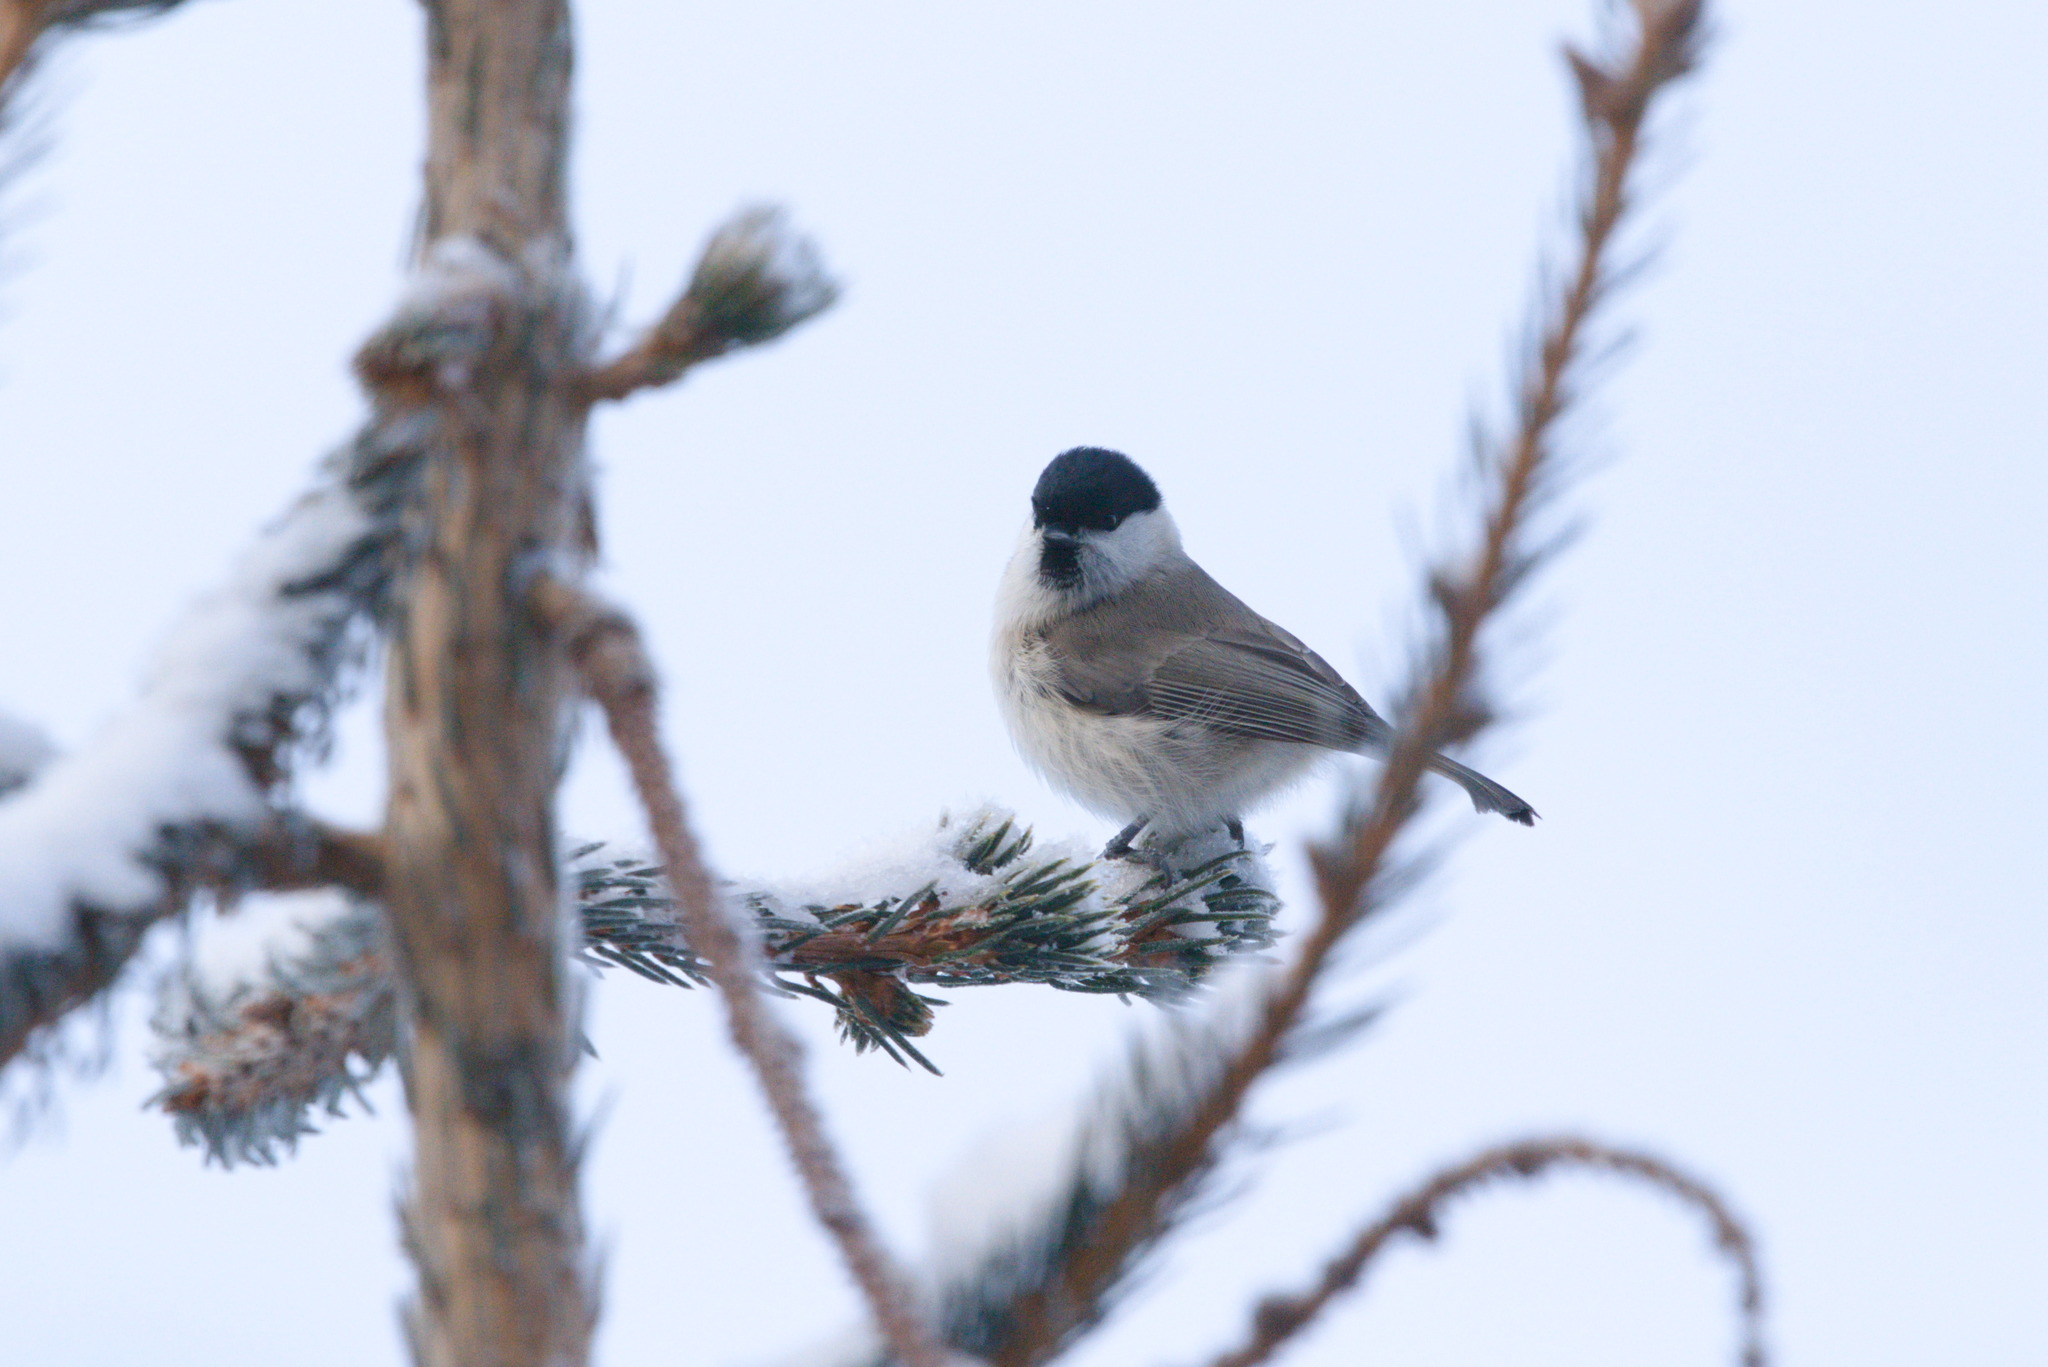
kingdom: Animalia
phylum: Chordata
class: Aves
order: Passeriformes
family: Paridae
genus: Poecile
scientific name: Poecile palustris
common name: Marsh tit
